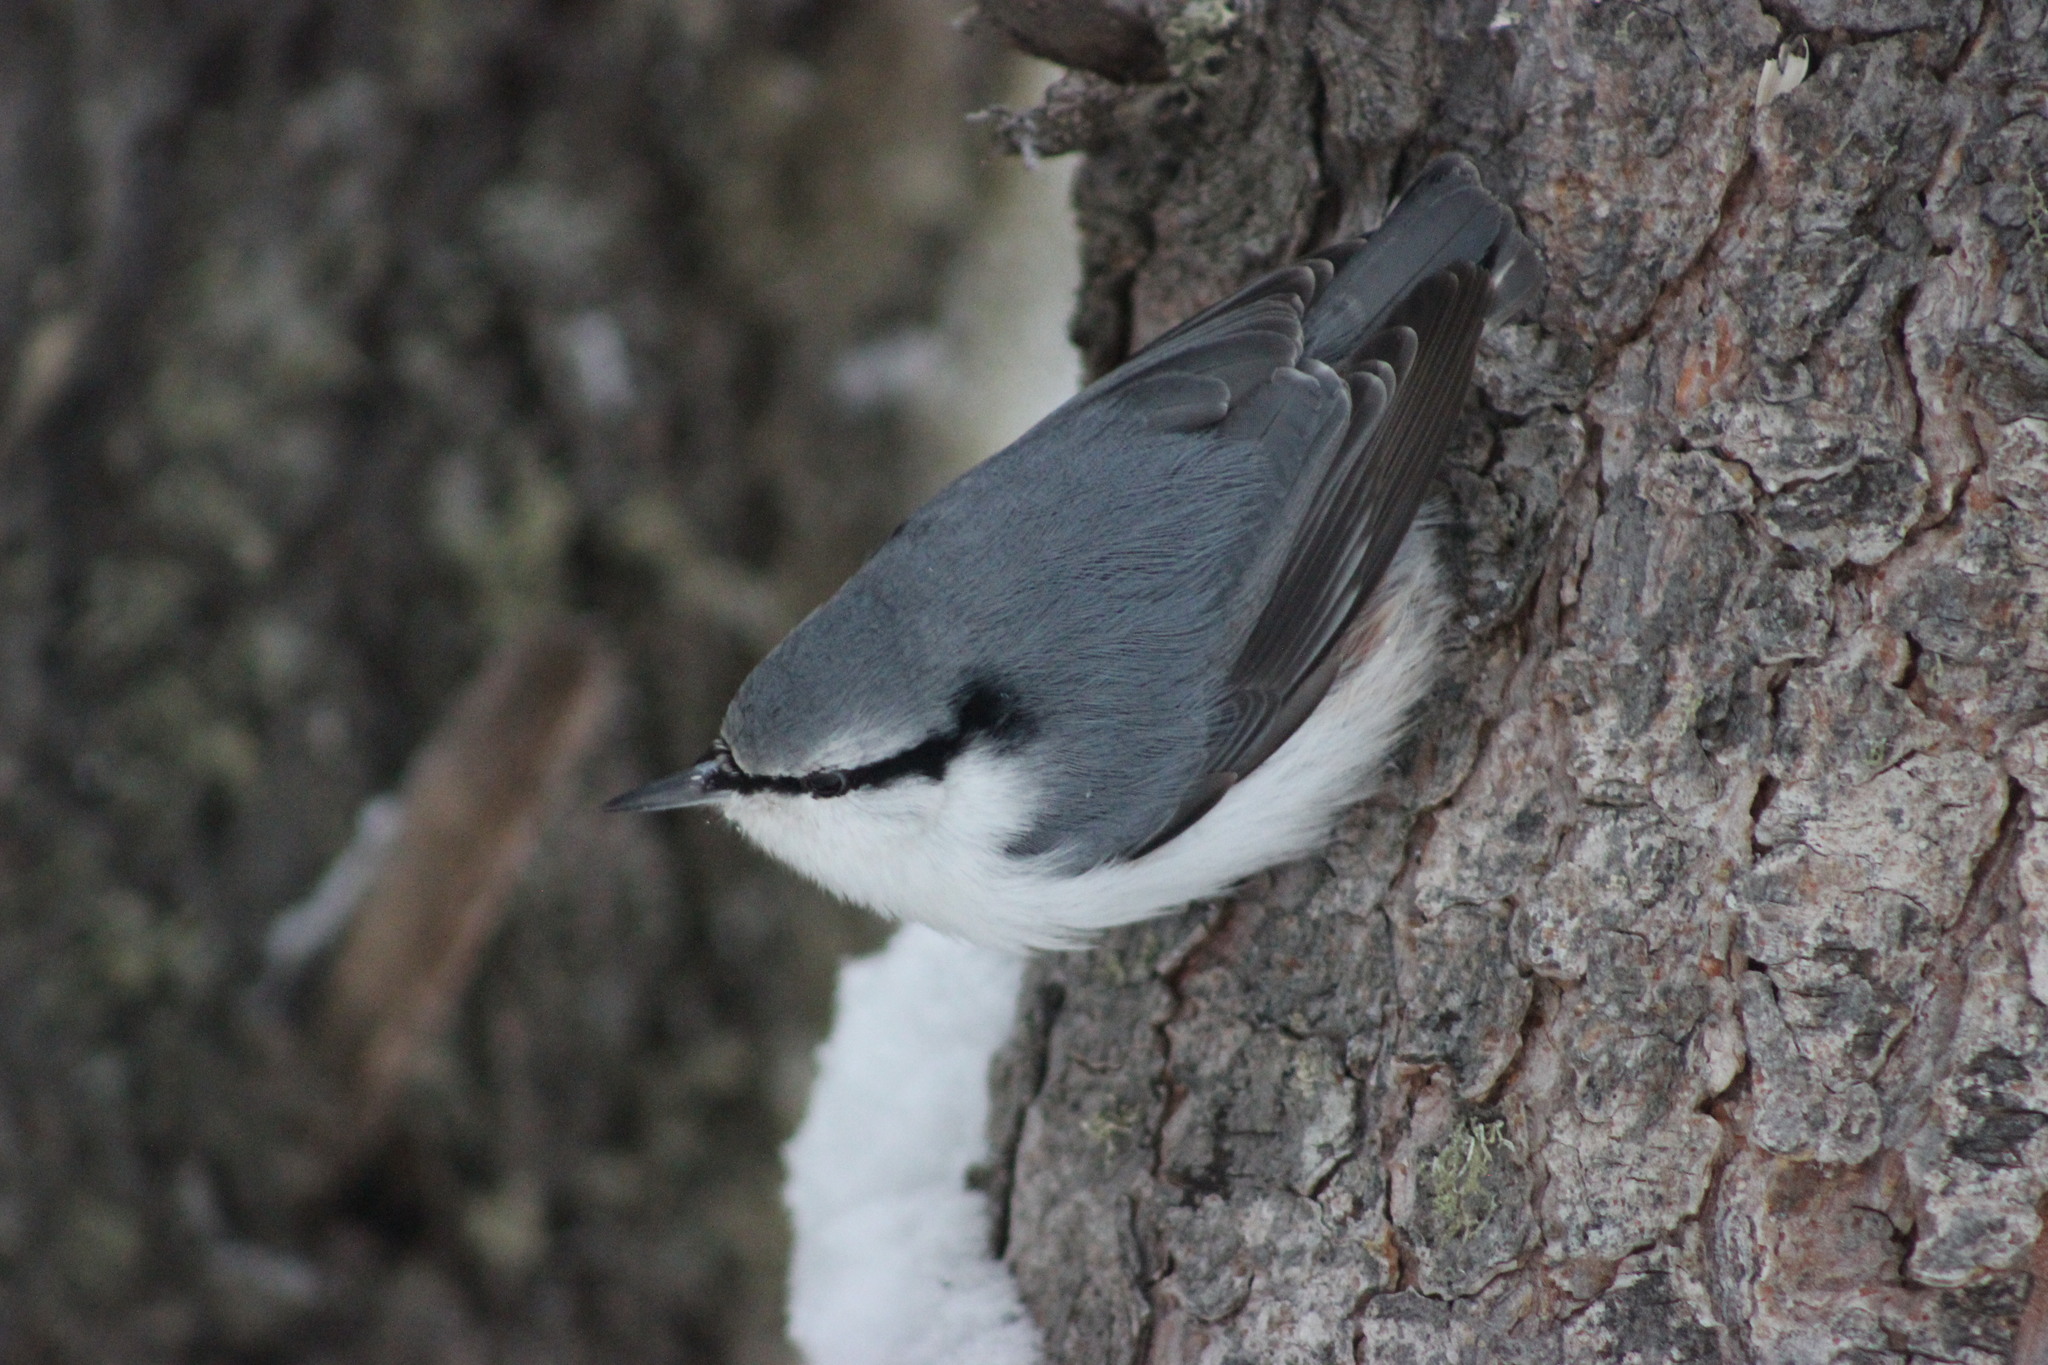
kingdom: Animalia
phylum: Chordata
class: Aves
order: Passeriformes
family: Sittidae
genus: Sitta
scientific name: Sitta europaea
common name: Eurasian nuthatch
